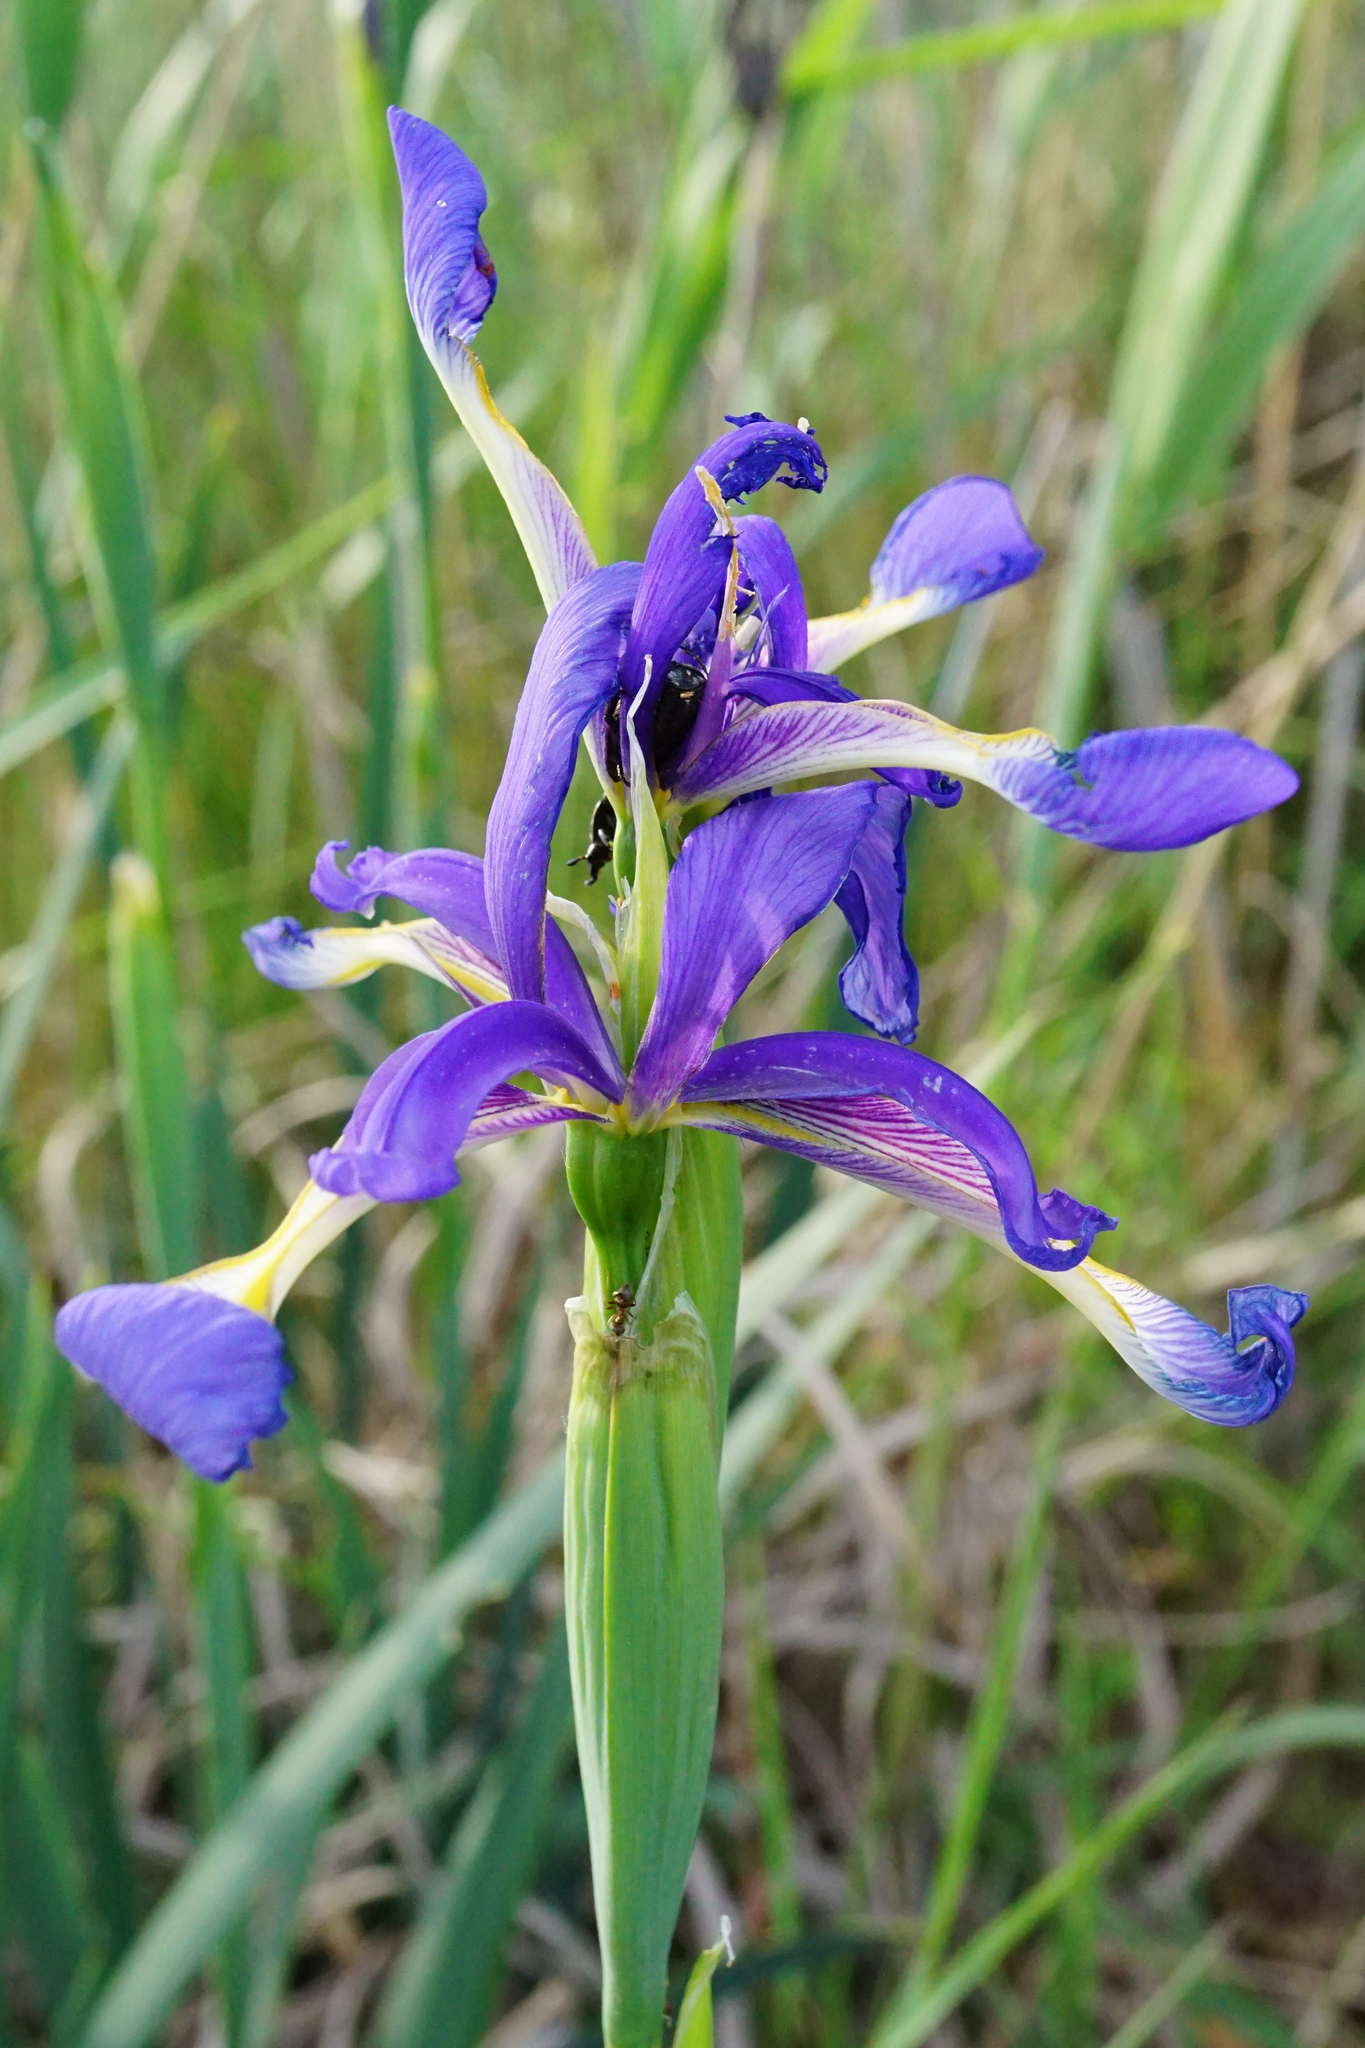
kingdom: Plantae
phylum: Tracheophyta
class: Liliopsida
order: Asparagales
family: Iridaceae
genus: Iris
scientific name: Iris spuria
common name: Blue iris
